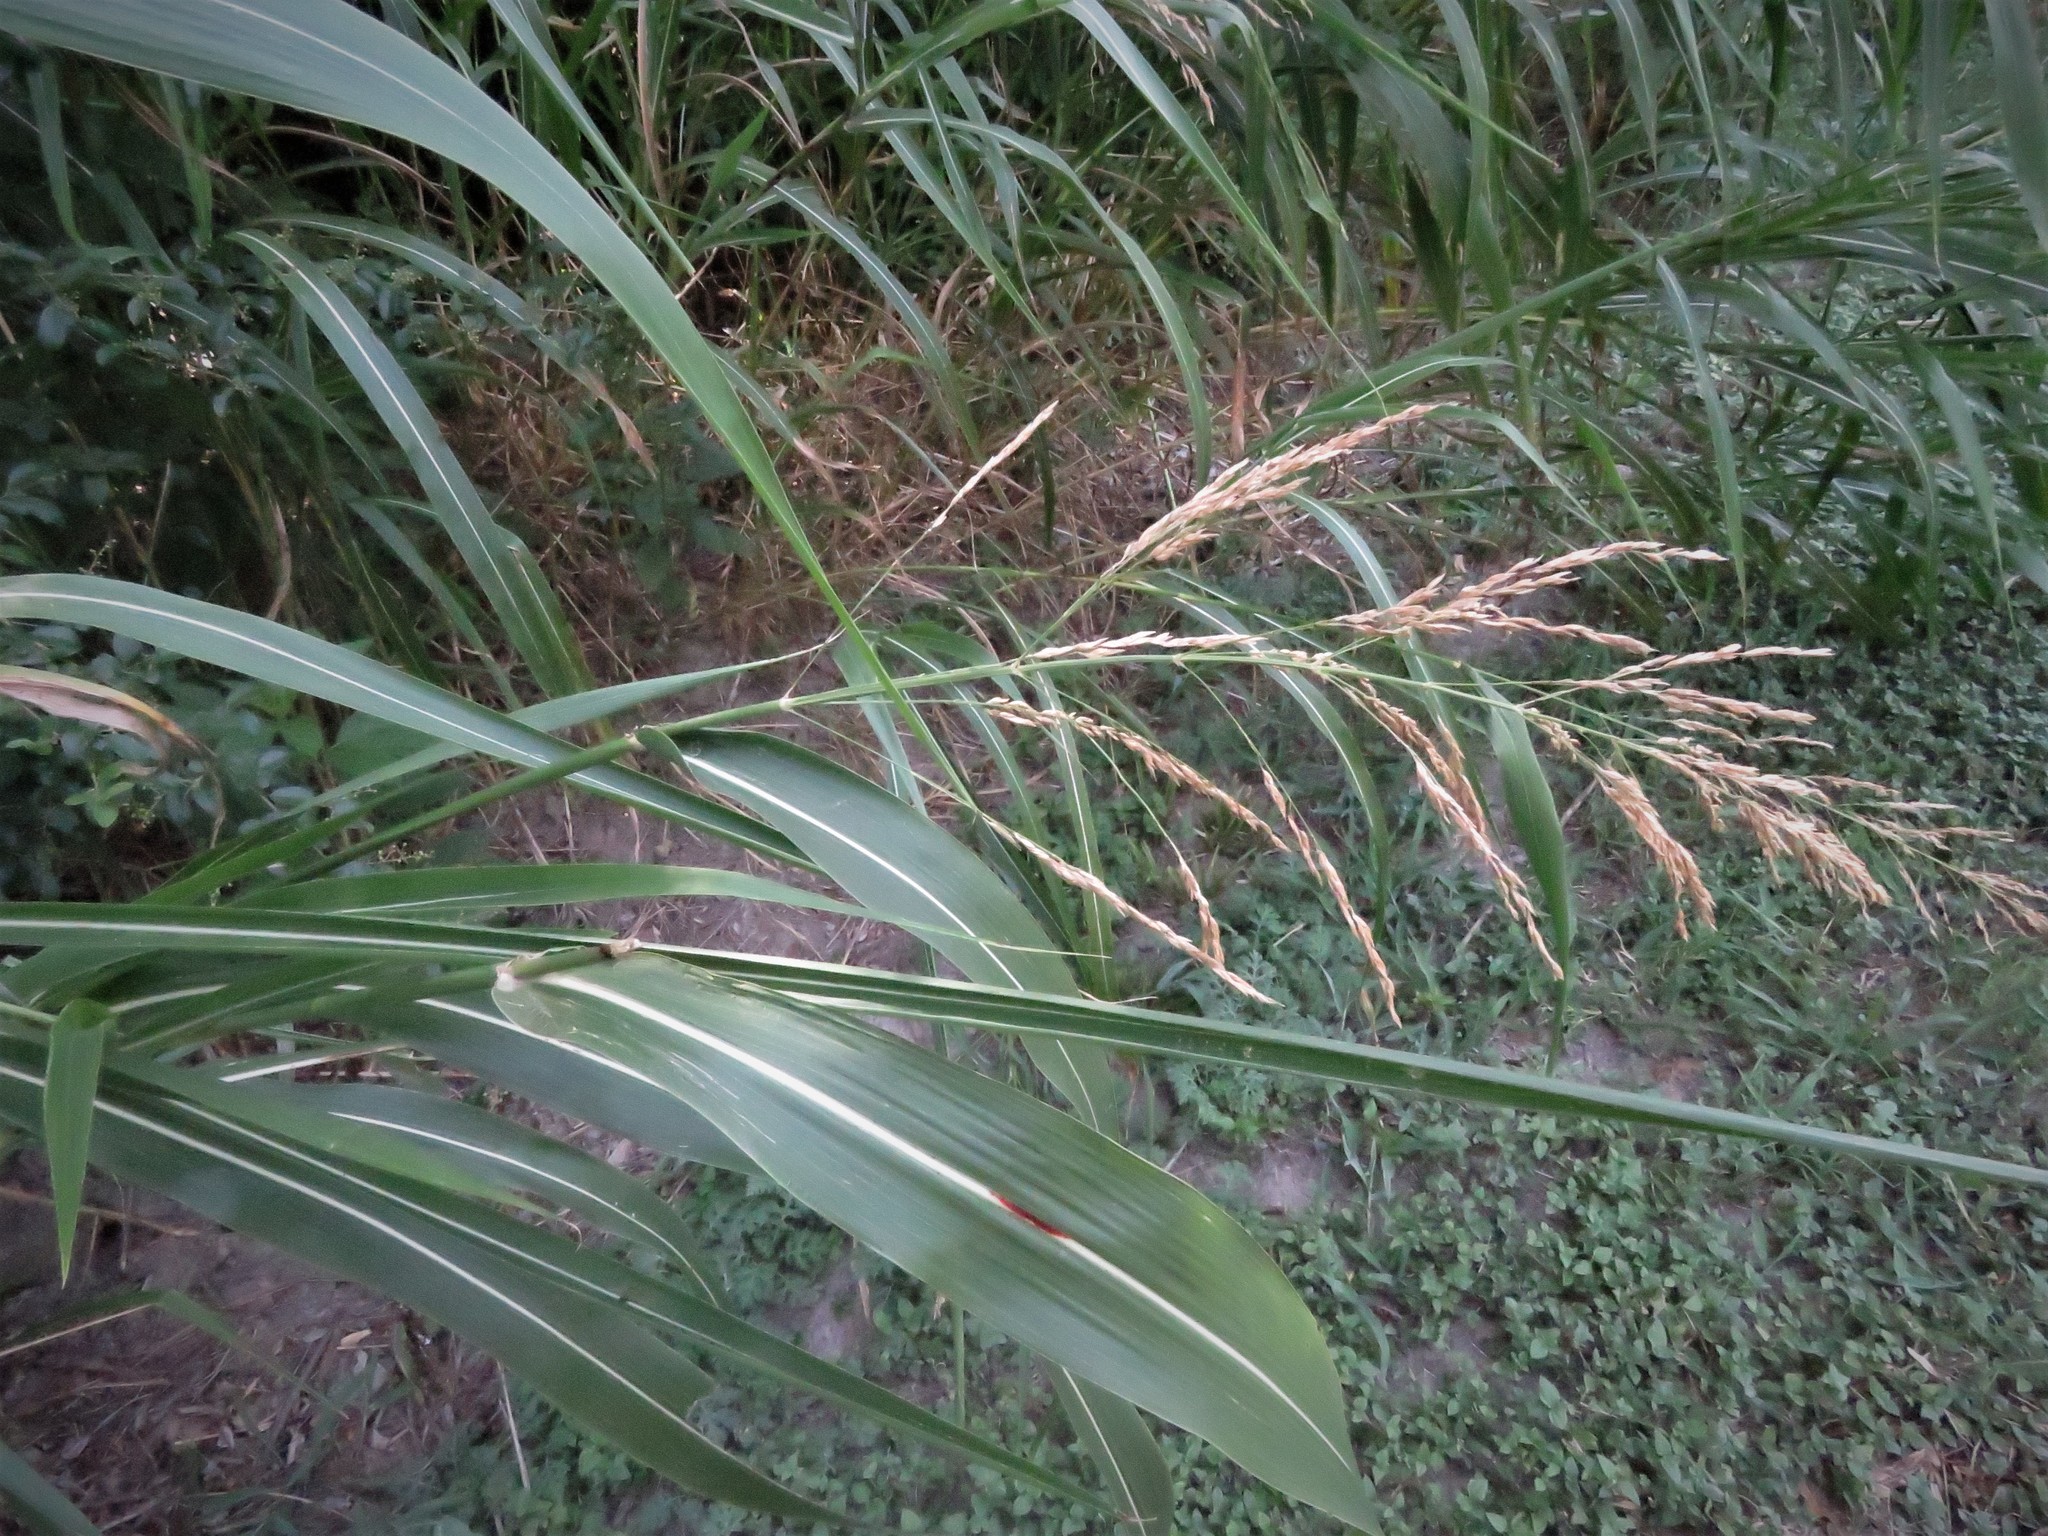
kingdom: Plantae
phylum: Tracheophyta
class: Liliopsida
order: Poales
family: Poaceae
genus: Sorghum
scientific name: Sorghum halepense
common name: Johnson-grass
